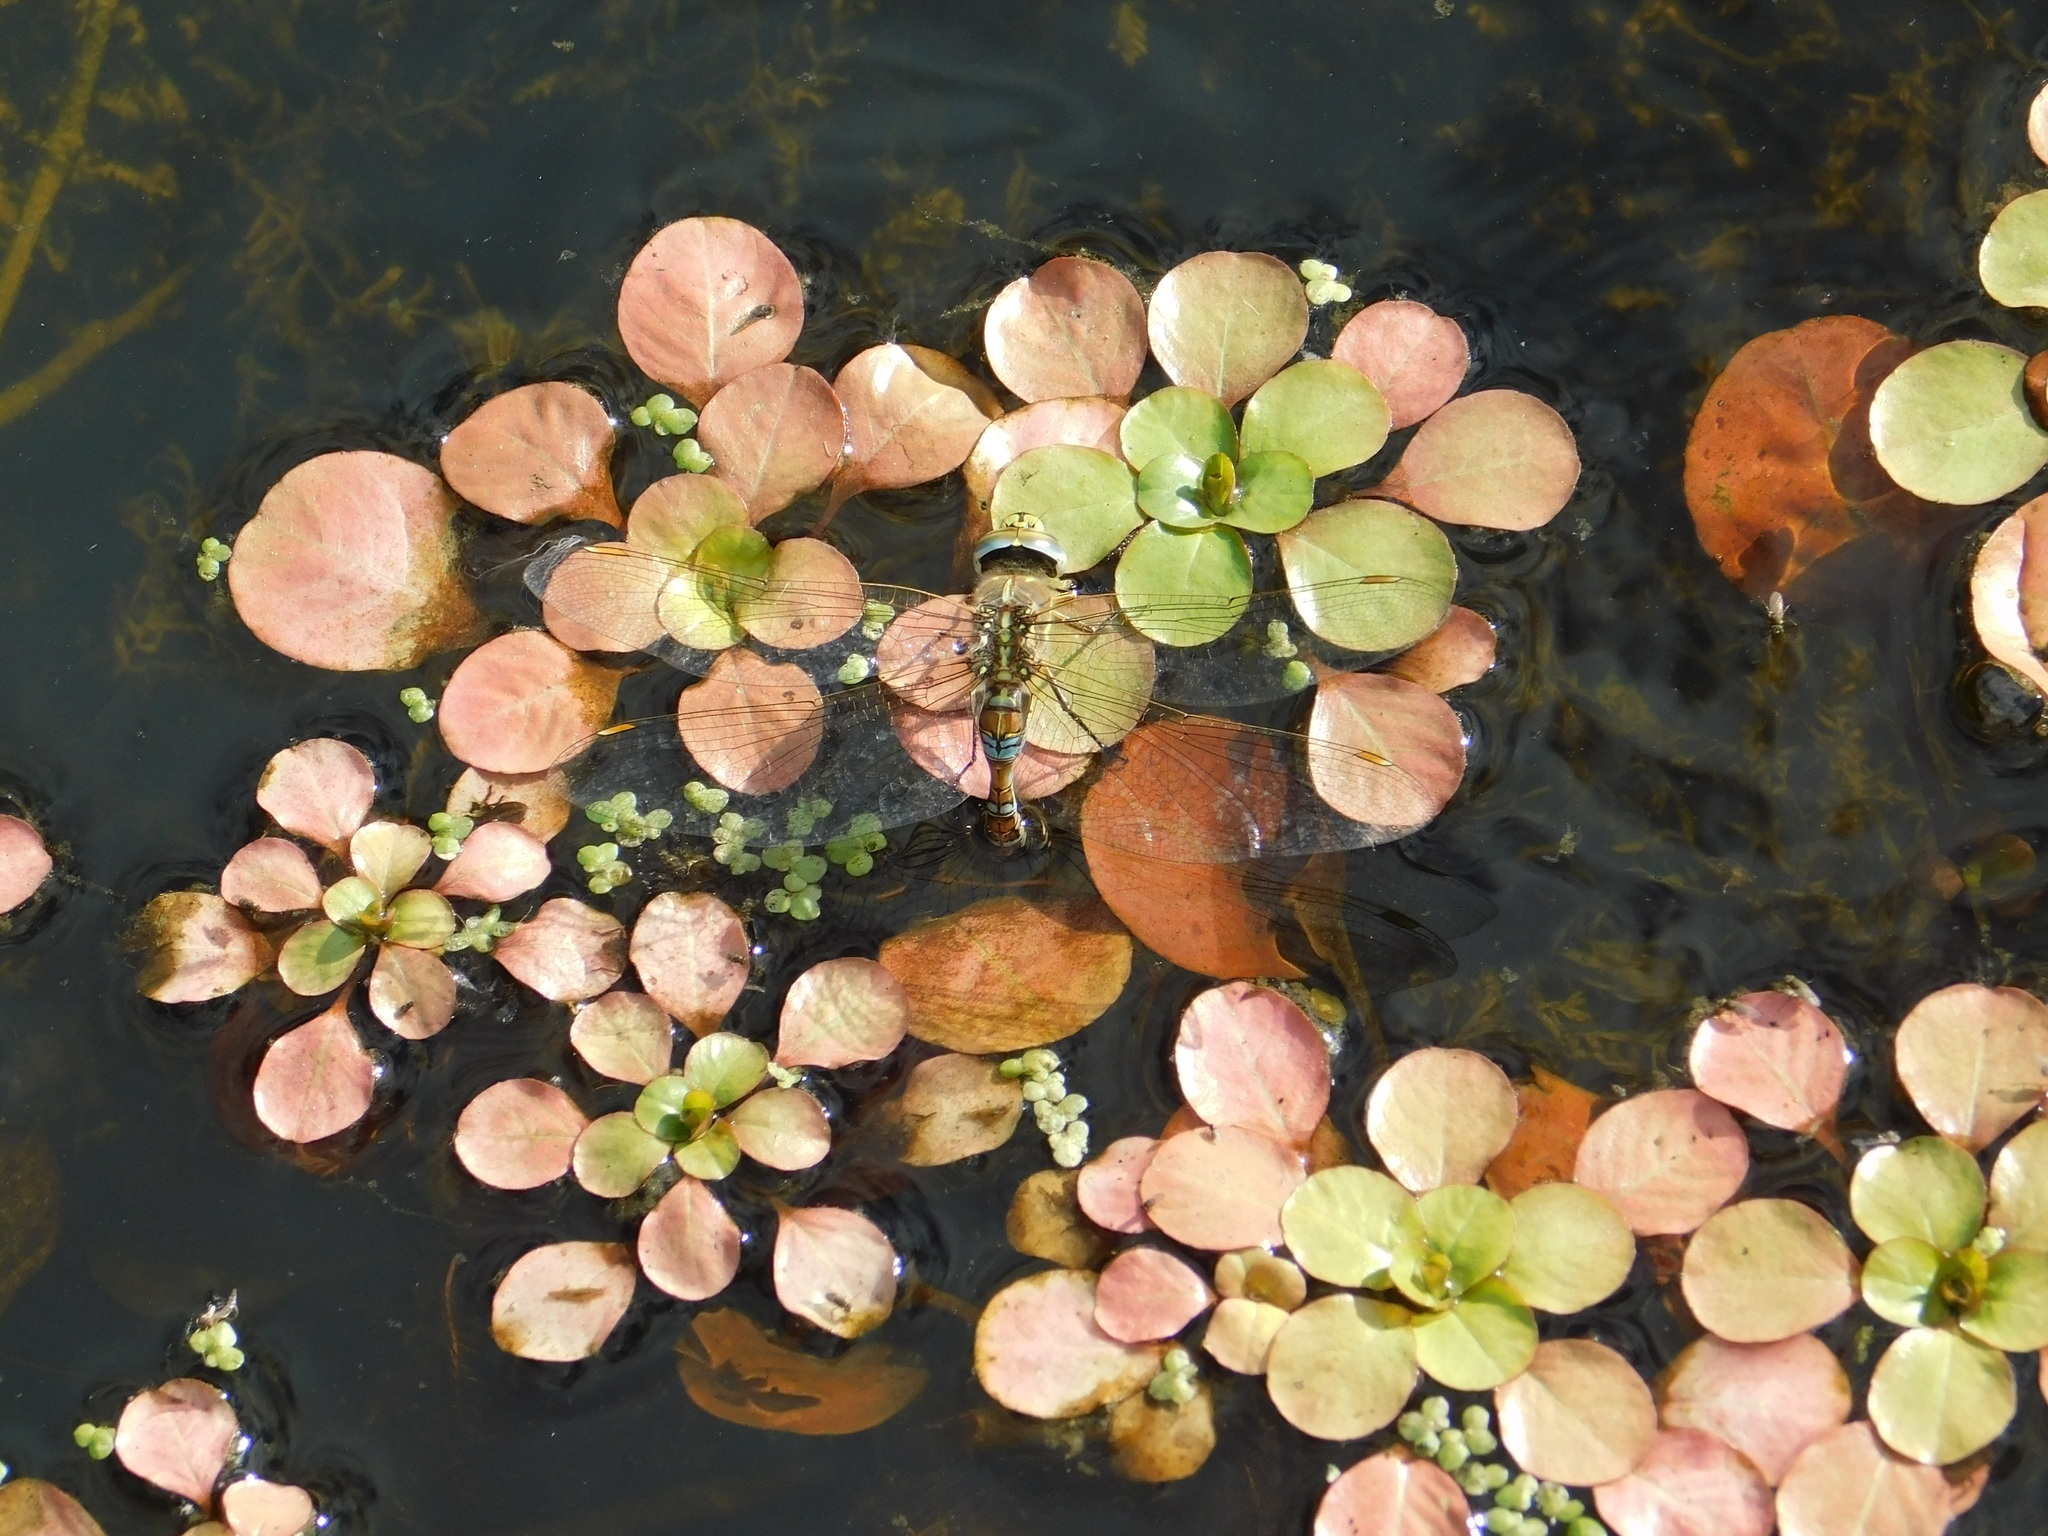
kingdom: Animalia
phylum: Arthropoda
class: Insecta
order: Odonata
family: Aeshnidae
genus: Rhionaeschna
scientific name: Rhionaeschna absoluta
